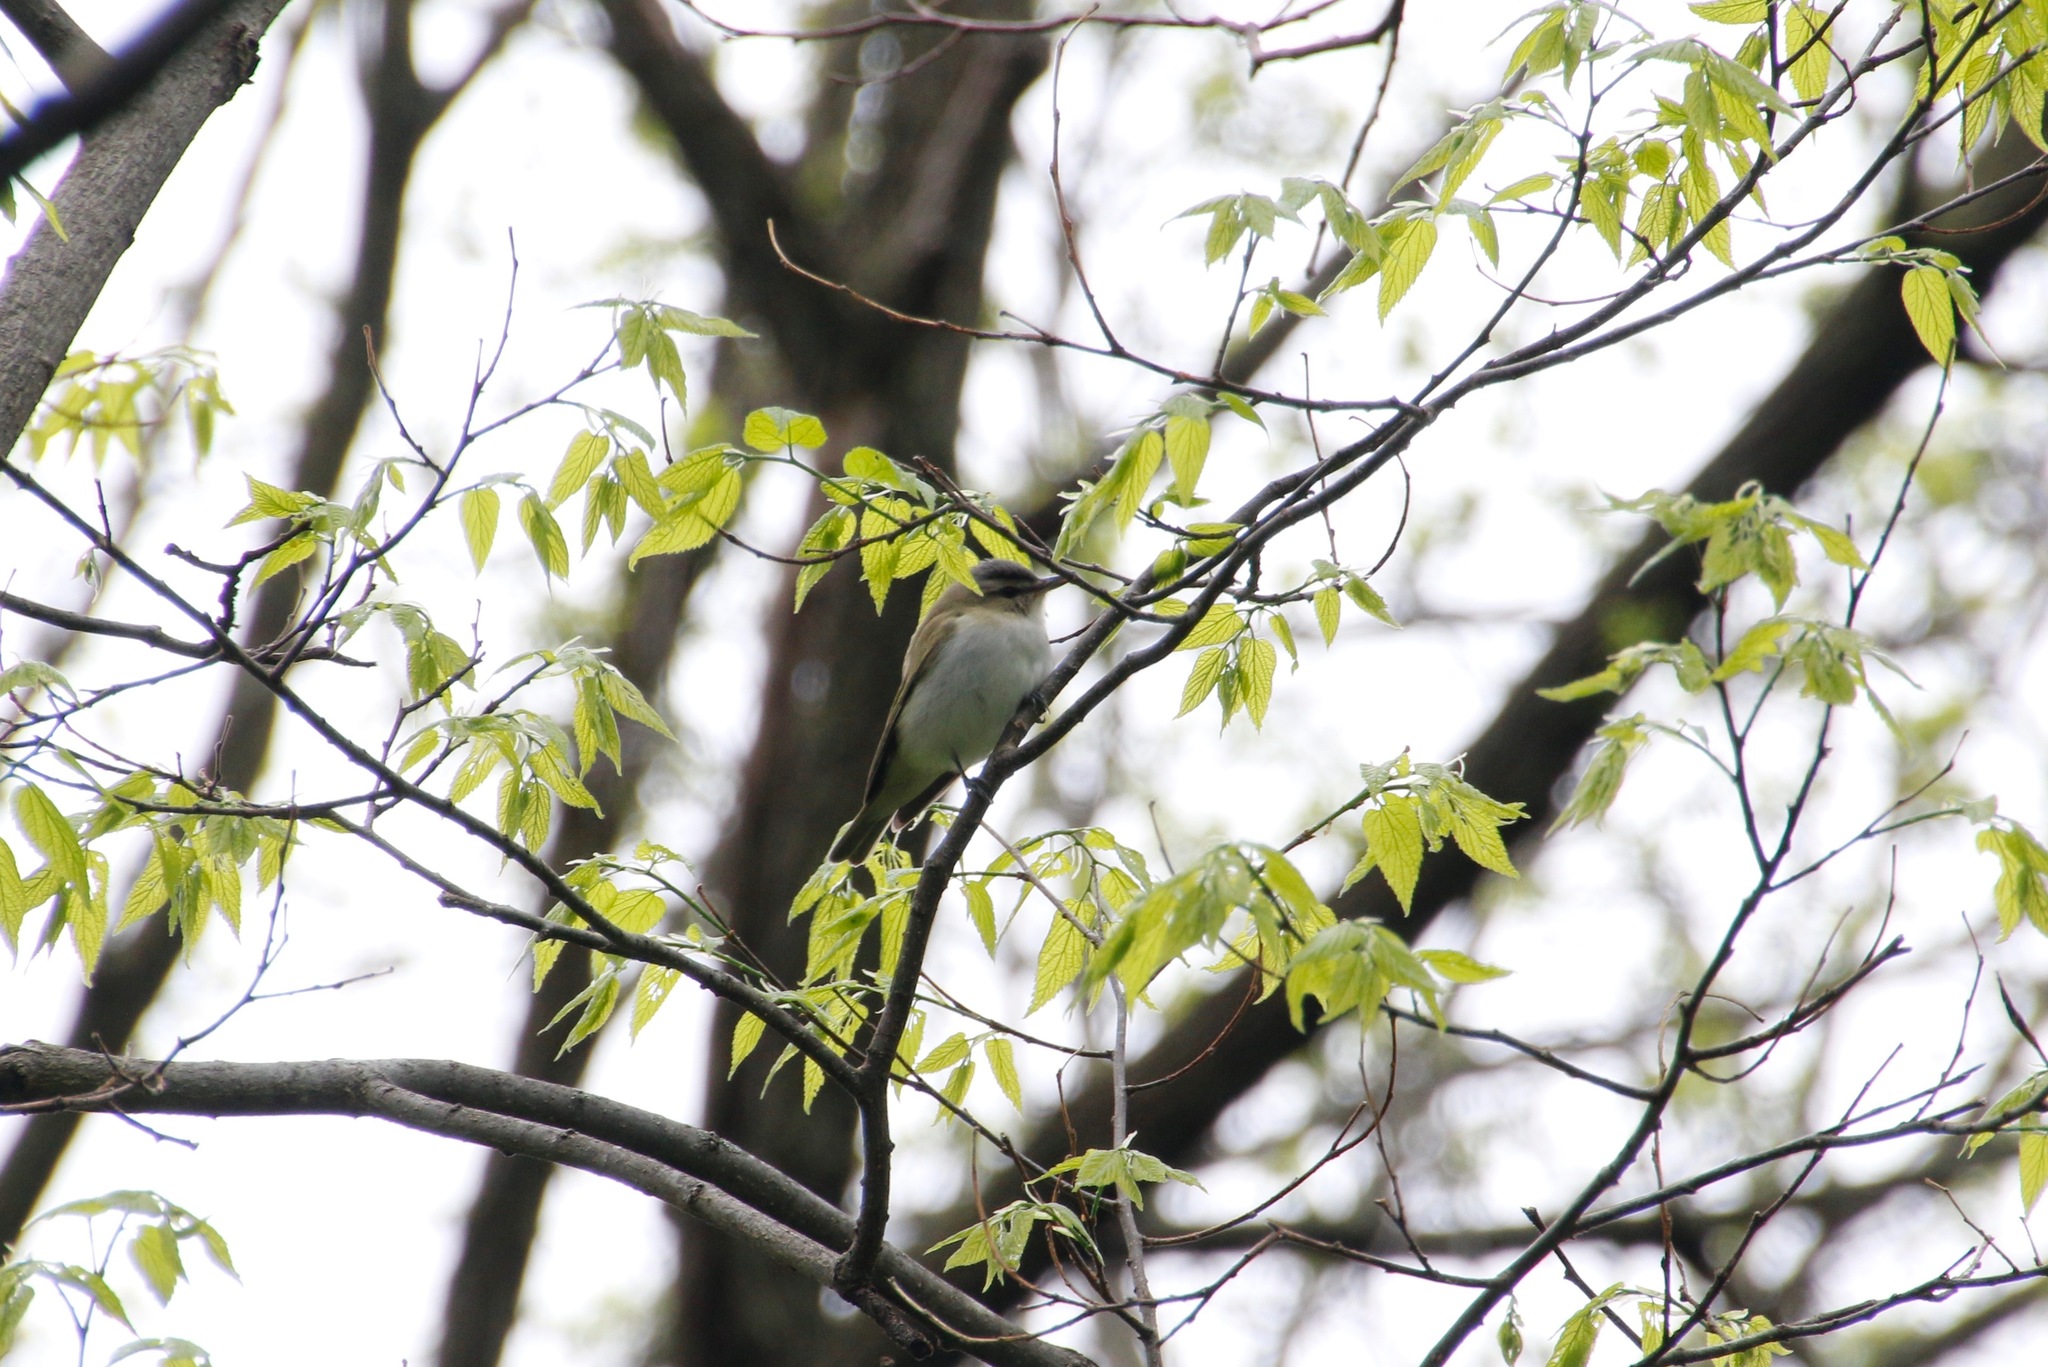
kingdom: Animalia
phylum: Chordata
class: Aves
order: Passeriformes
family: Vireonidae
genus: Vireo
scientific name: Vireo olivaceus
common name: Red-eyed vireo
